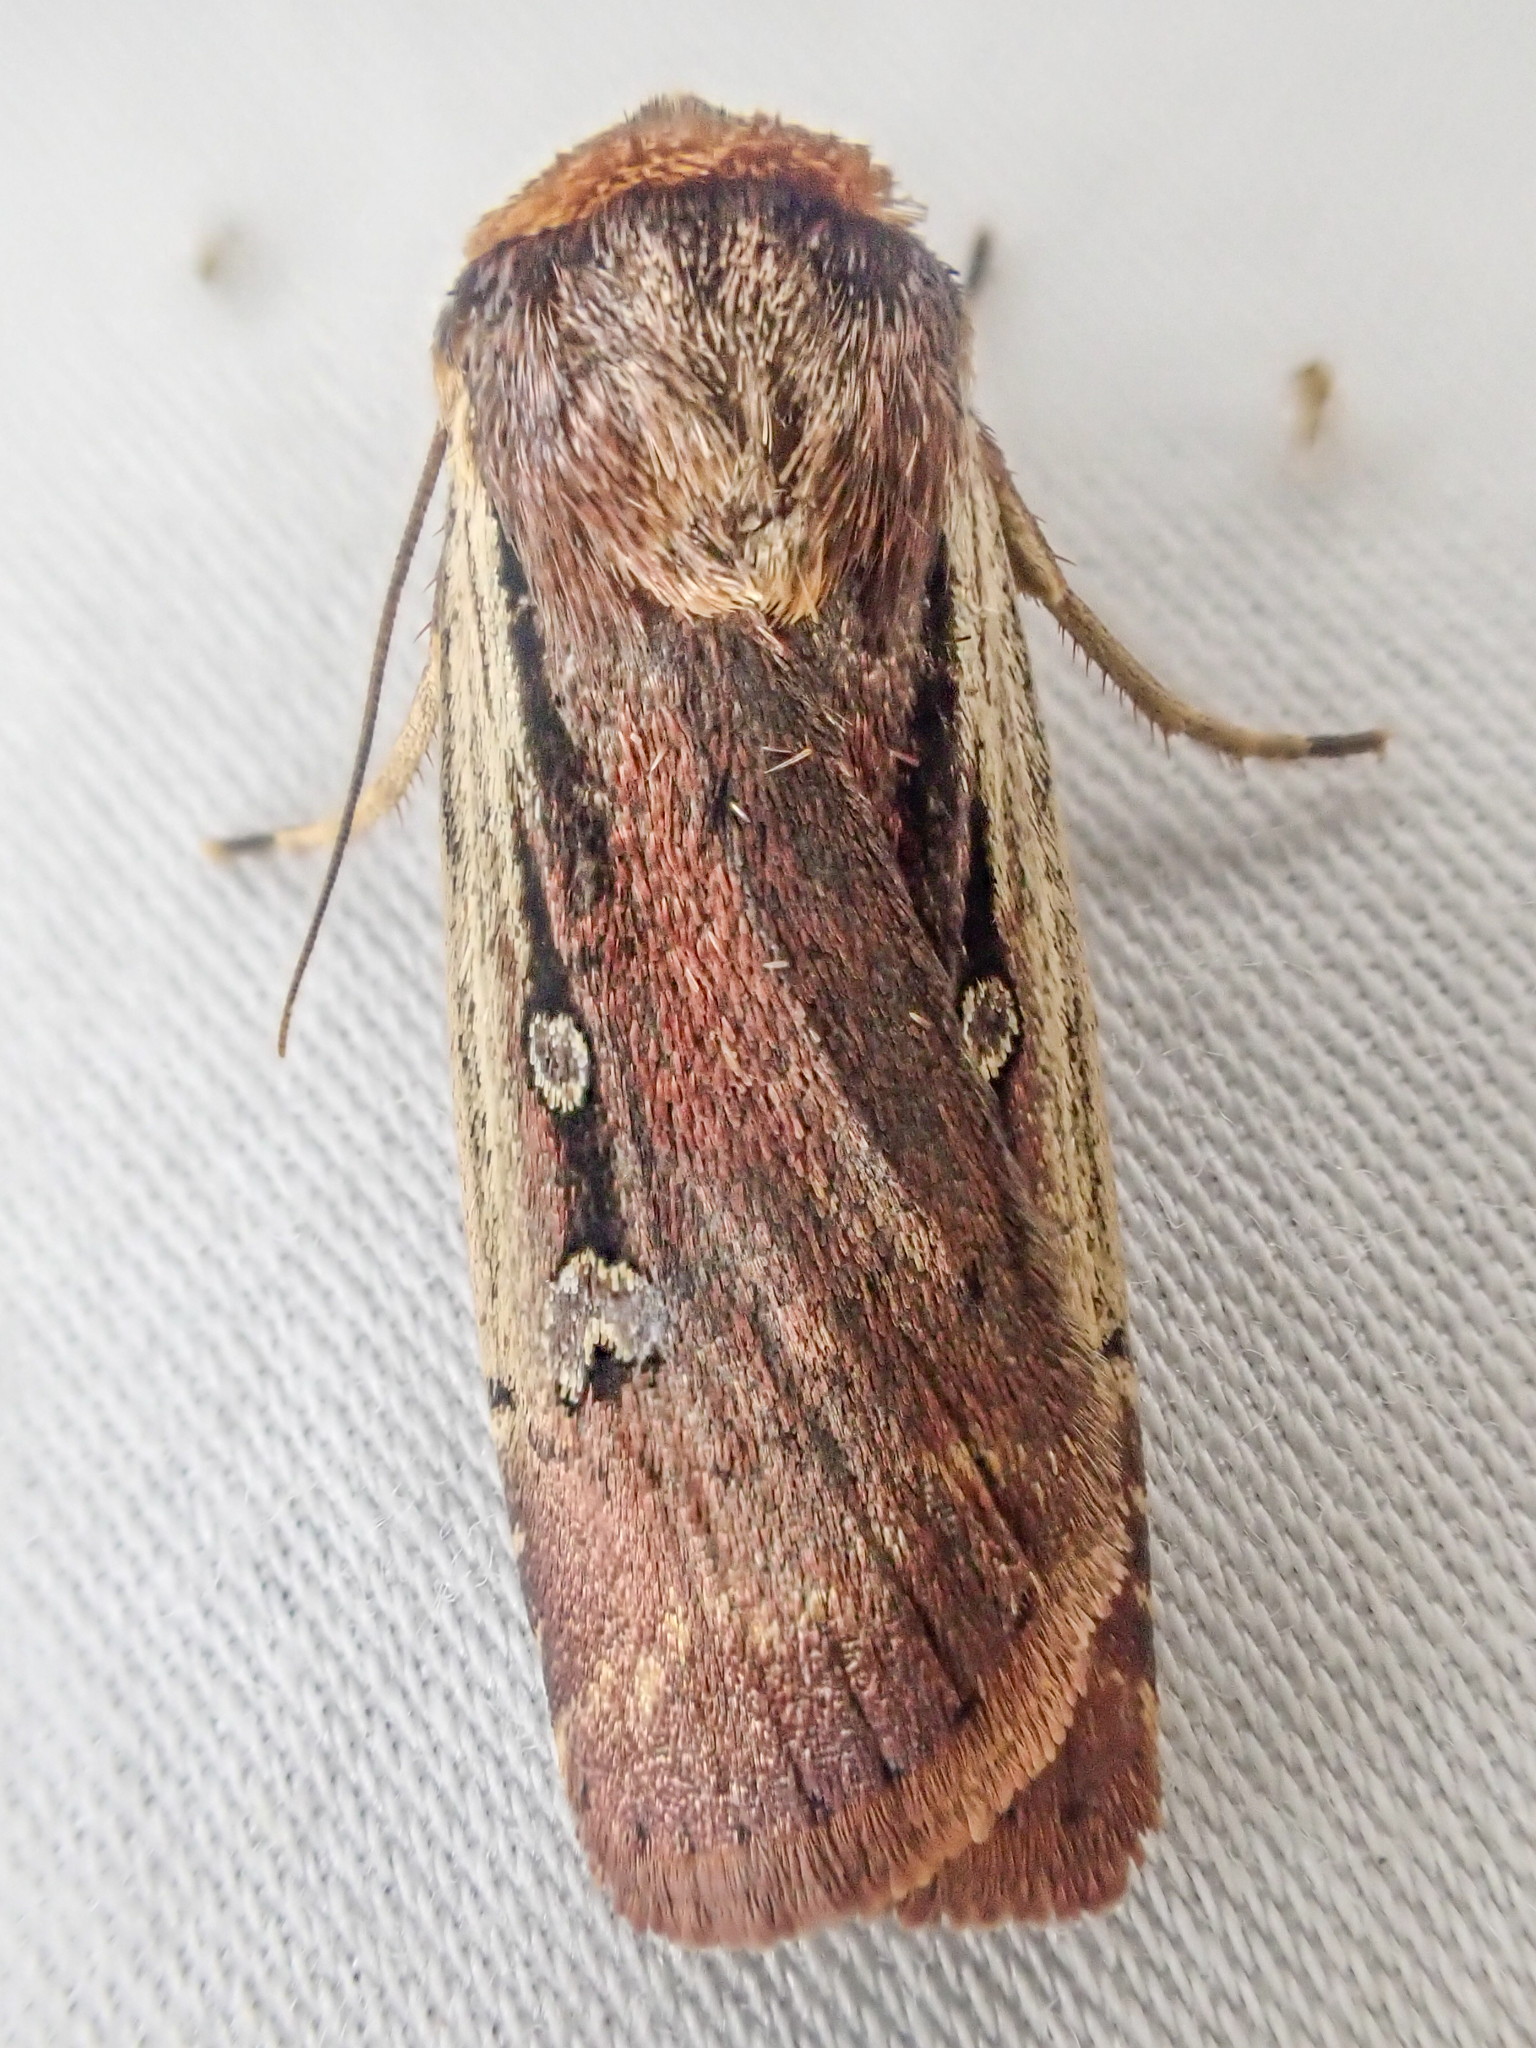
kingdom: Animalia
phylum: Arthropoda
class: Insecta
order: Lepidoptera
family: Noctuidae
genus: Ochropleura
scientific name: Ochropleura implecta
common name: Flame-shouldered dart
